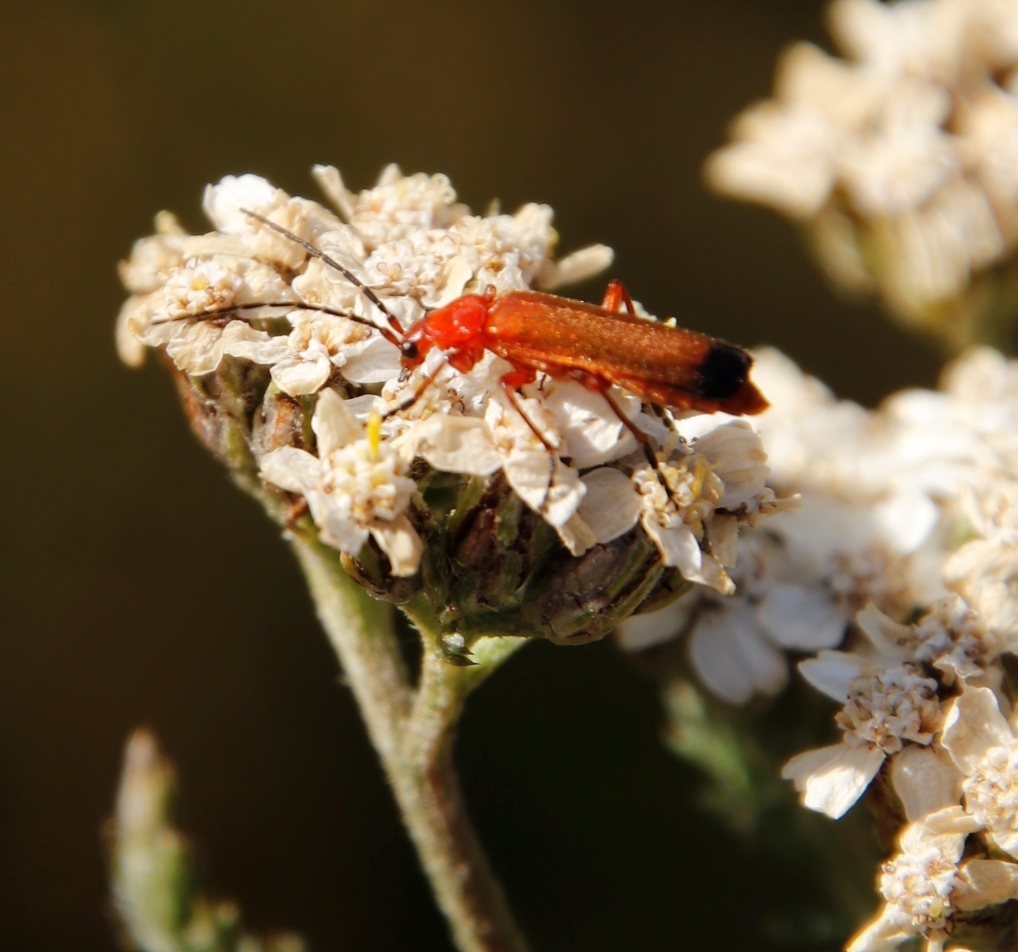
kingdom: Plantae
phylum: Tracheophyta
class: Magnoliopsida
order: Asterales
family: Asteraceae
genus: Achillea
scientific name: Achillea millefolium
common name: Yarrow
